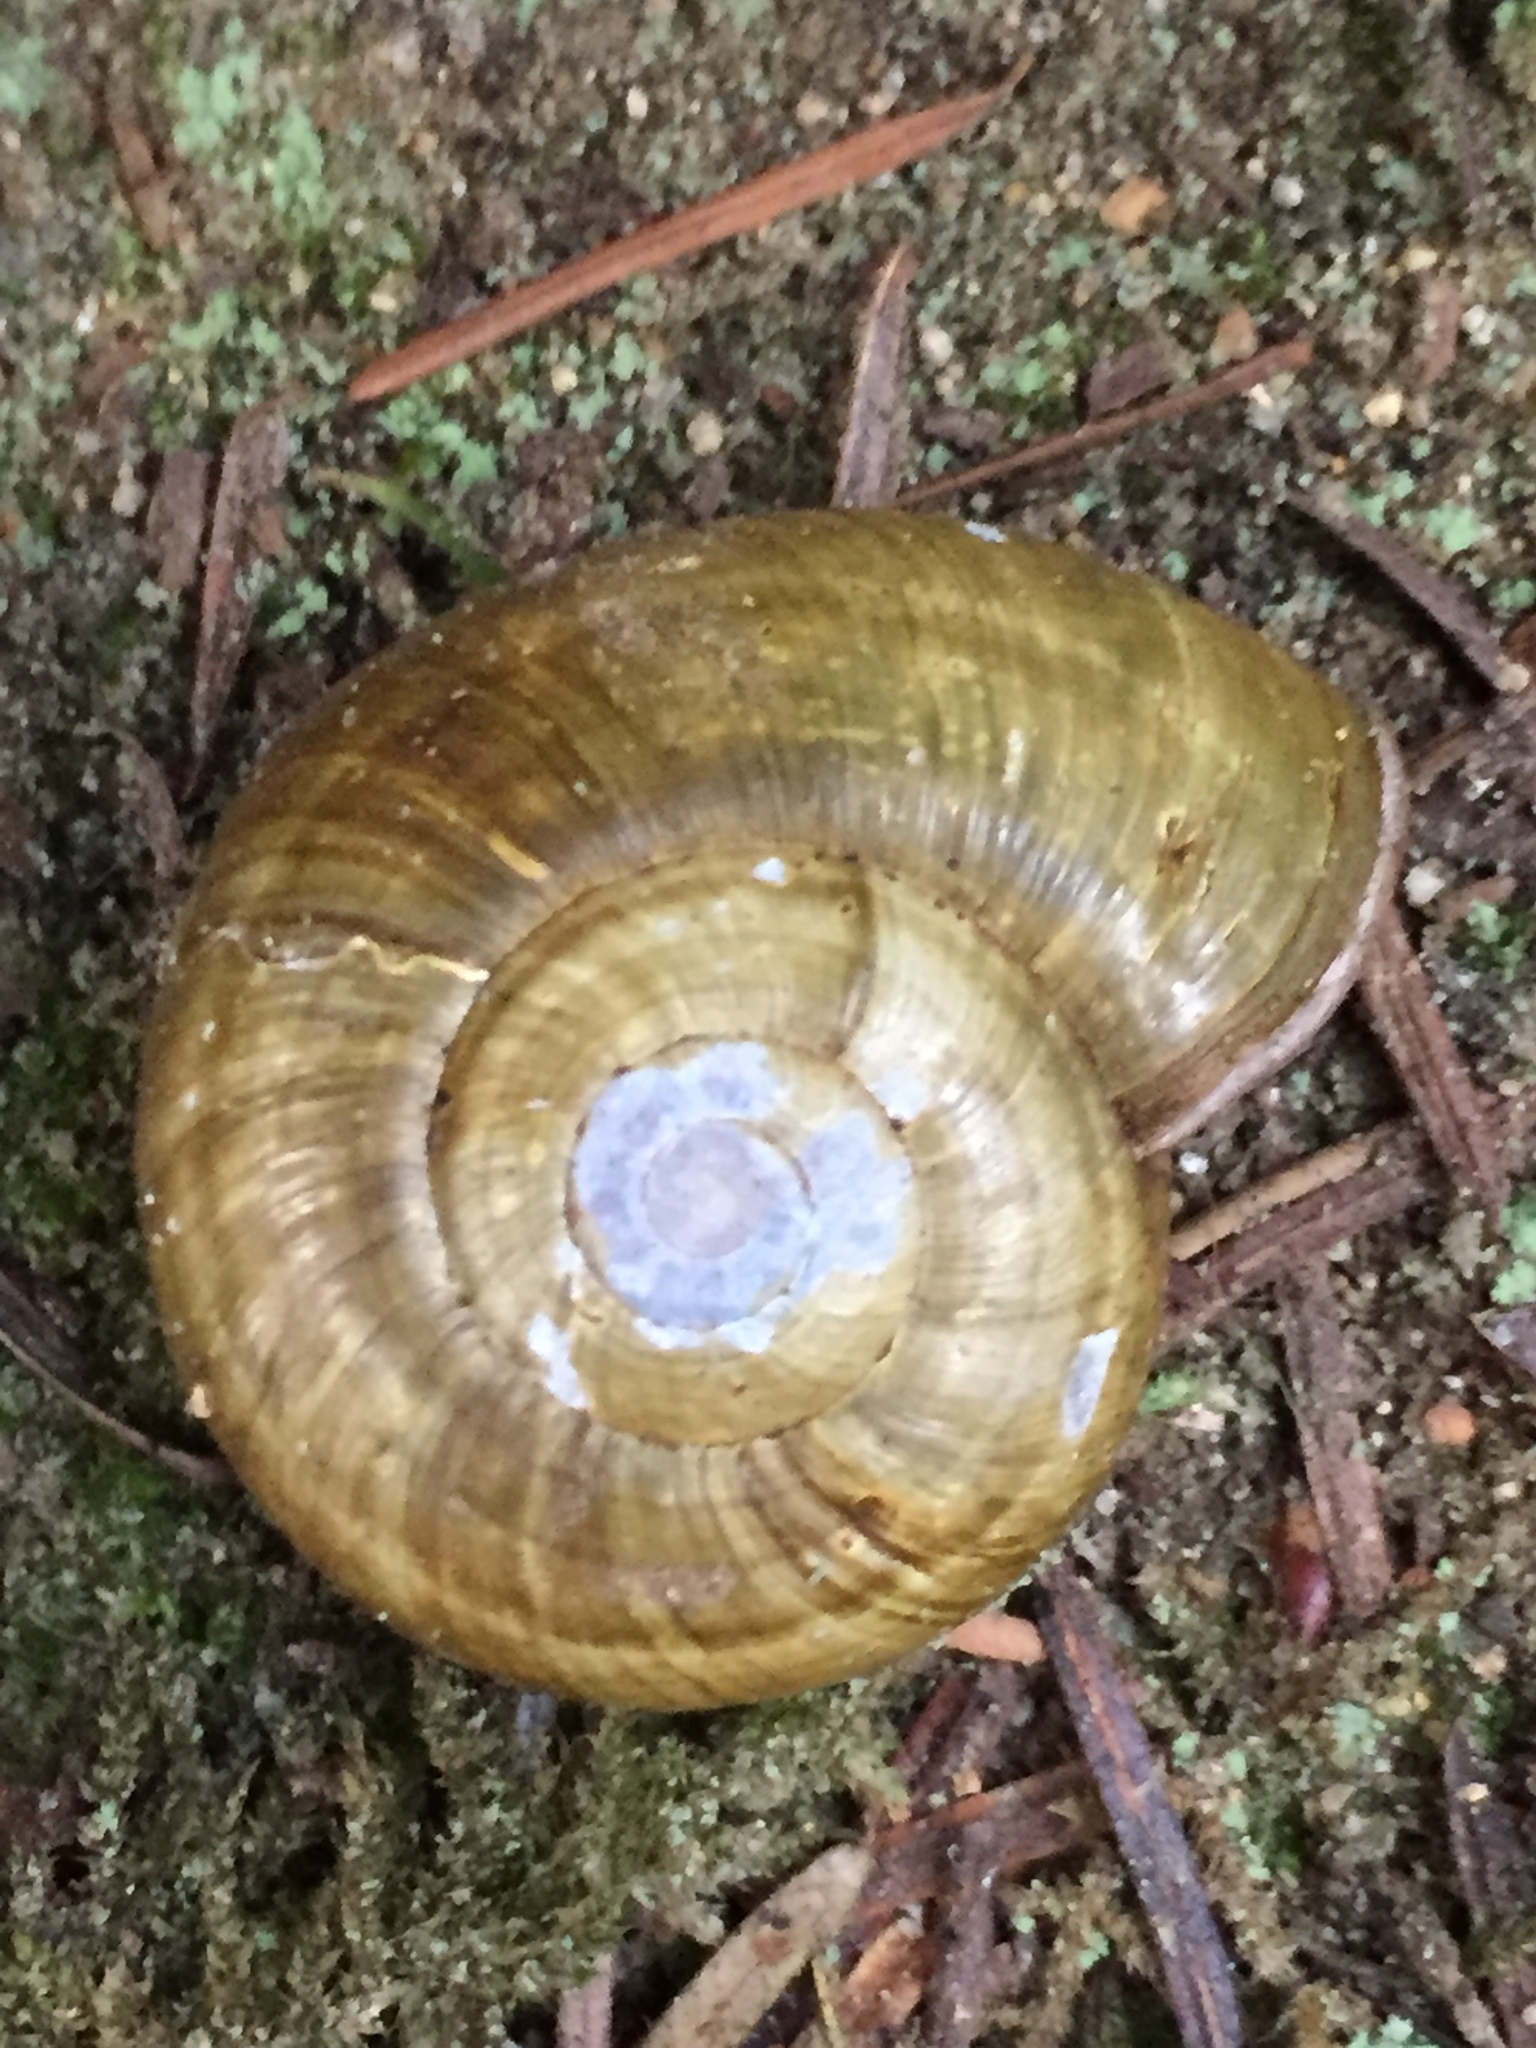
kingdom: Animalia
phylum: Mollusca
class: Gastropoda
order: Stylommatophora
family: Haplotrematidae
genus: Haplotrema
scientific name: Haplotrema vancouverense
